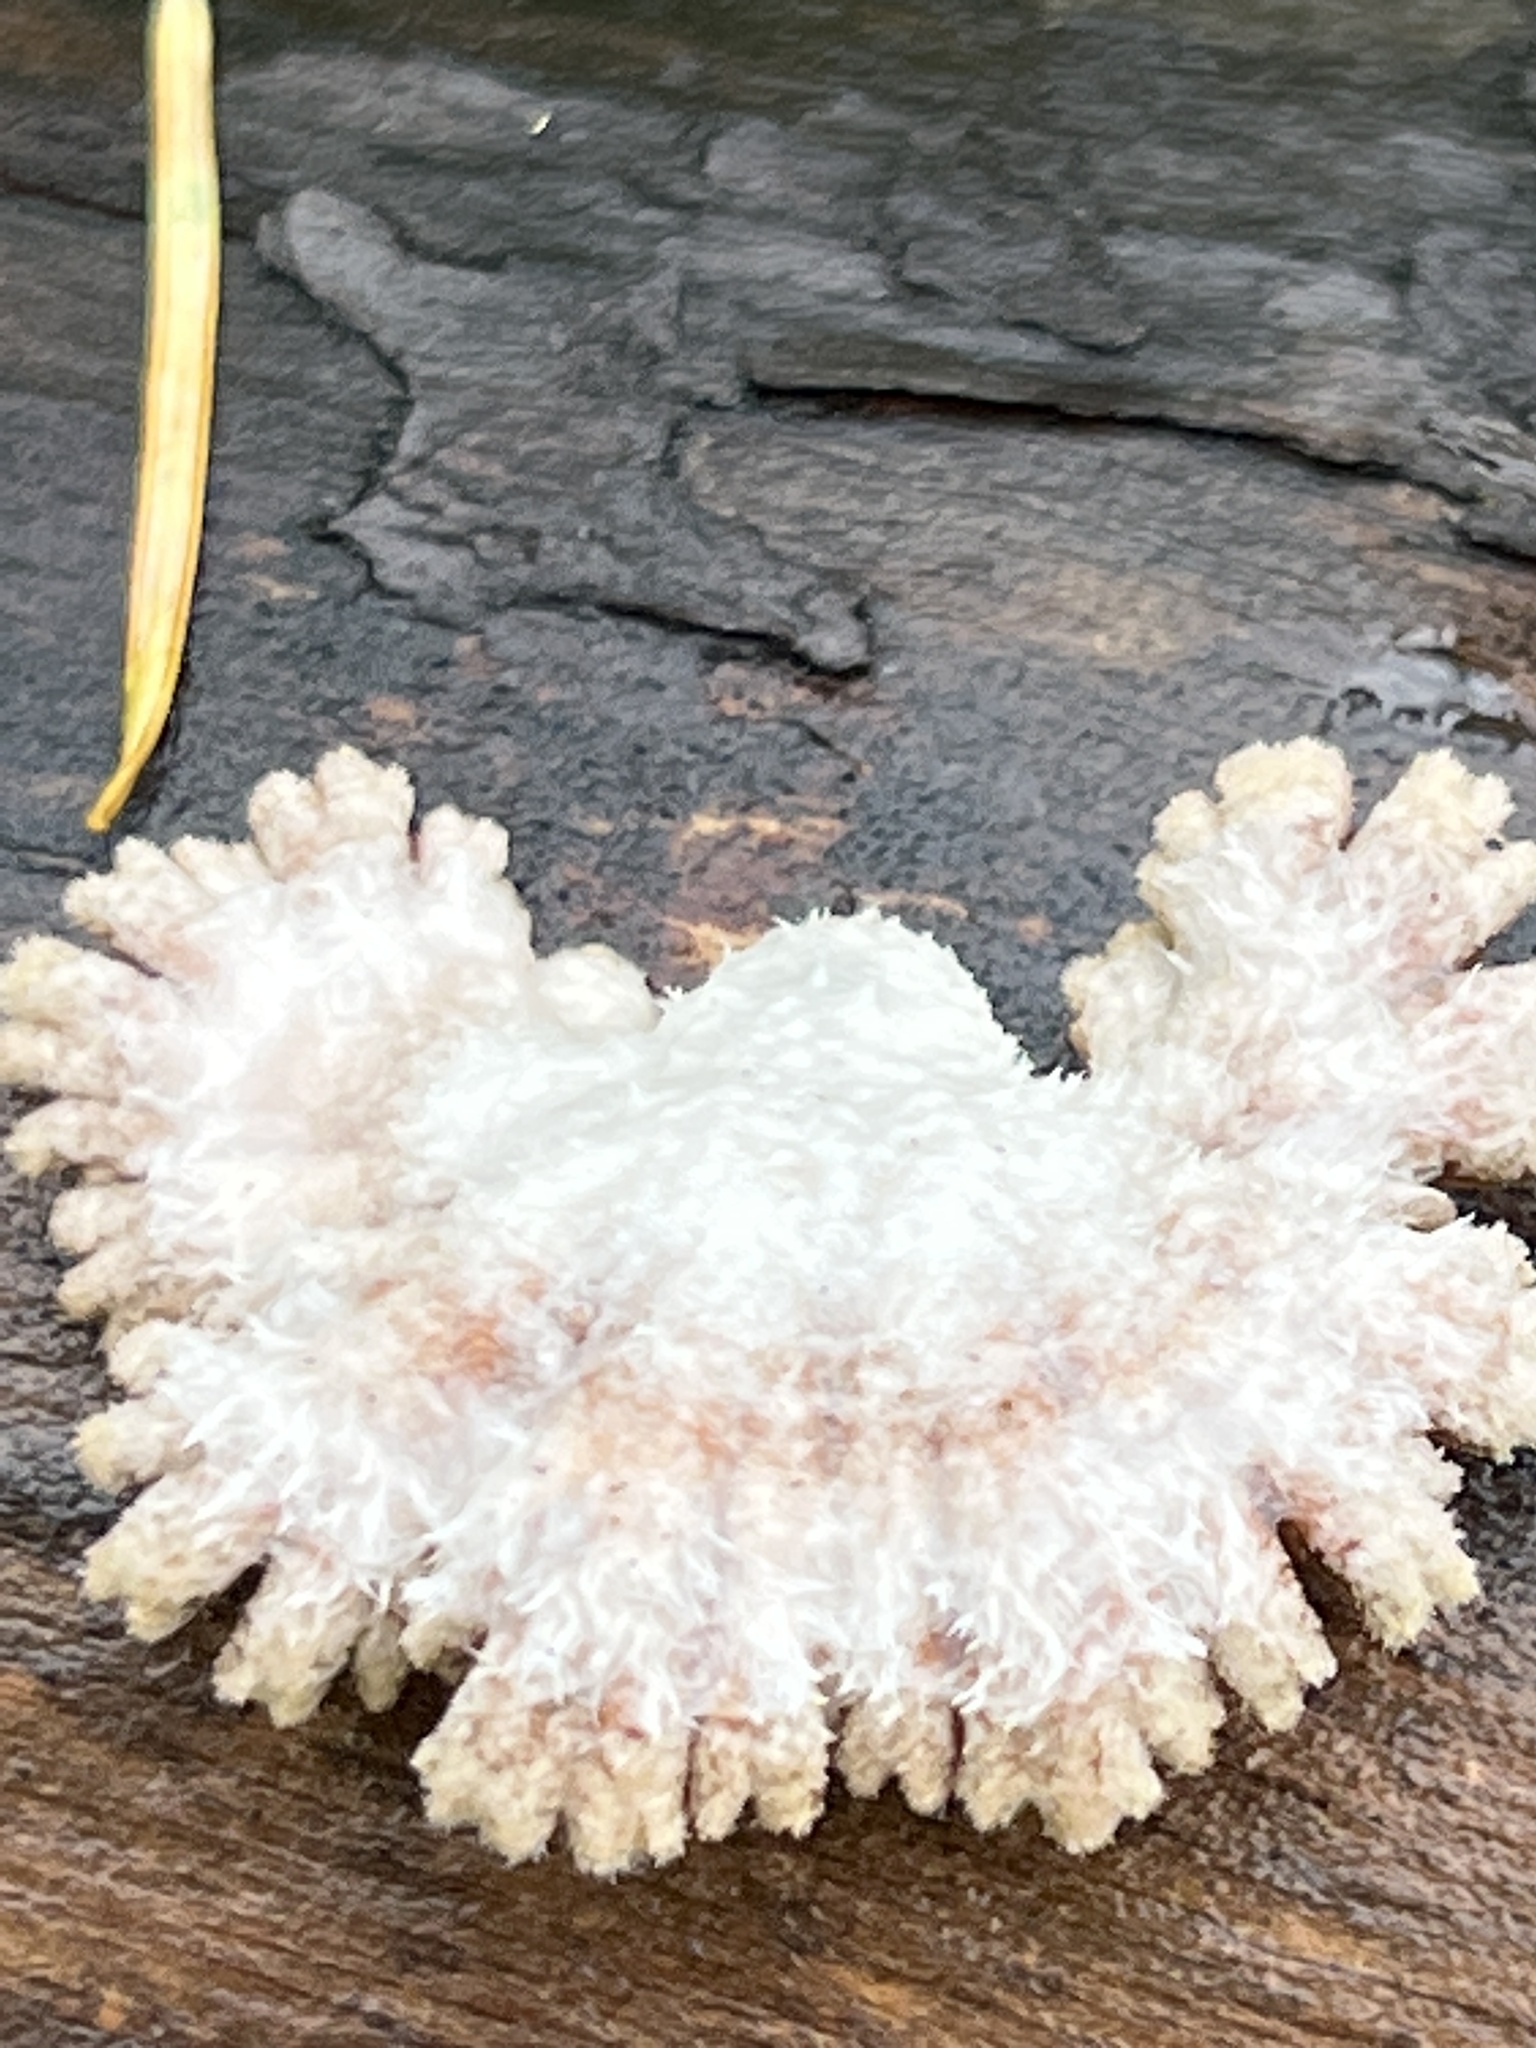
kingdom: Fungi
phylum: Basidiomycota
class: Agaricomycetes
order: Agaricales
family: Schizophyllaceae
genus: Schizophyllum
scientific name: Schizophyllum commune
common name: Common porecrust
